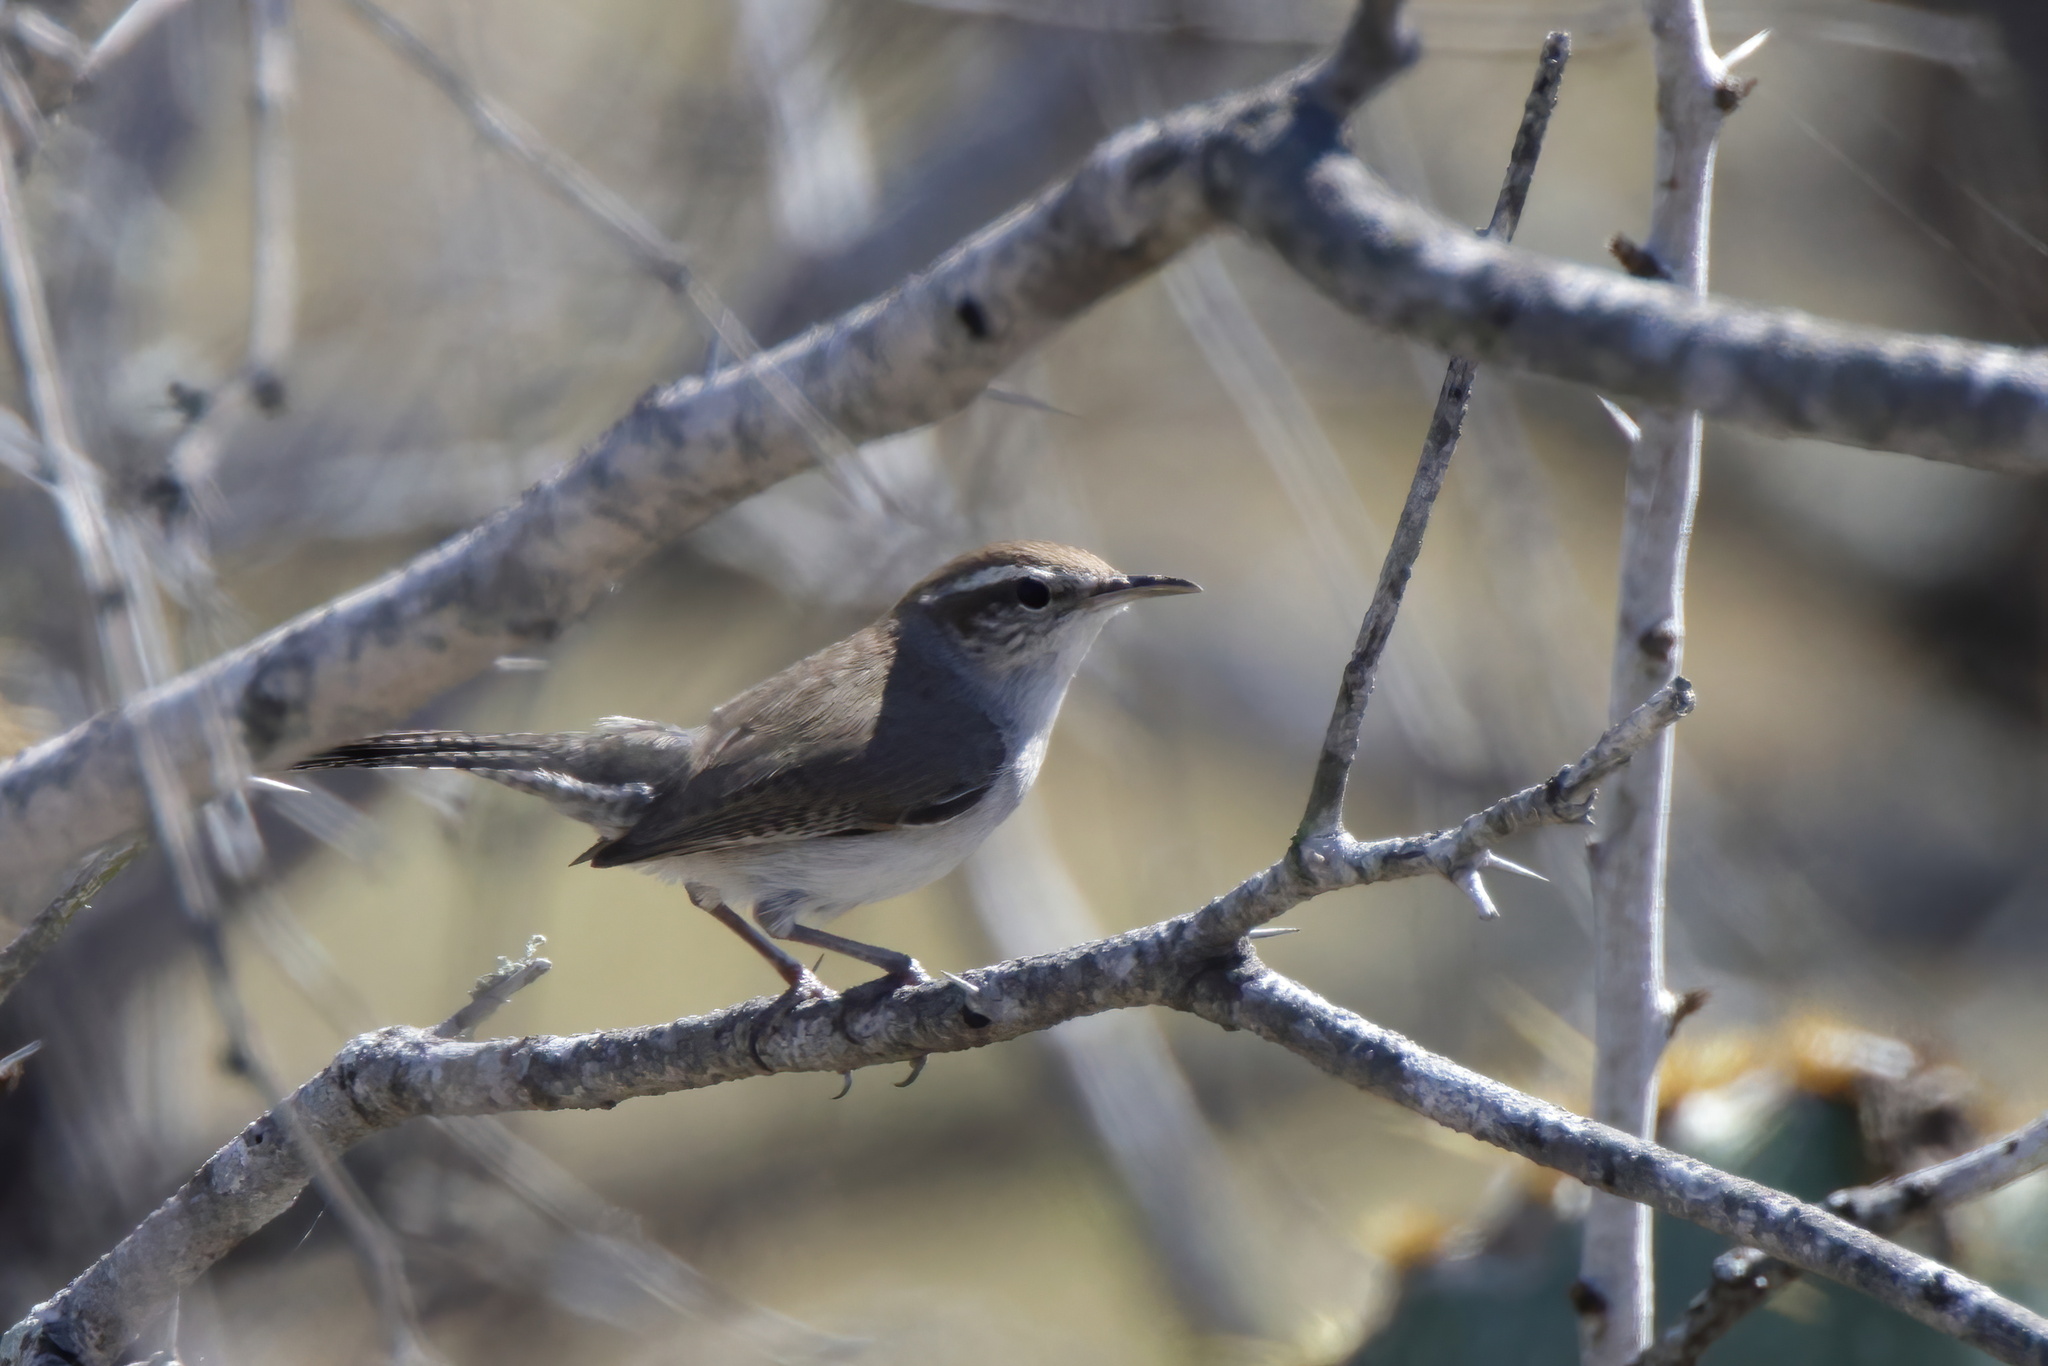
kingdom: Animalia
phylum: Chordata
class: Aves
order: Passeriformes
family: Troglodytidae
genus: Thryomanes
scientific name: Thryomanes bewickii
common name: Bewick's wren
